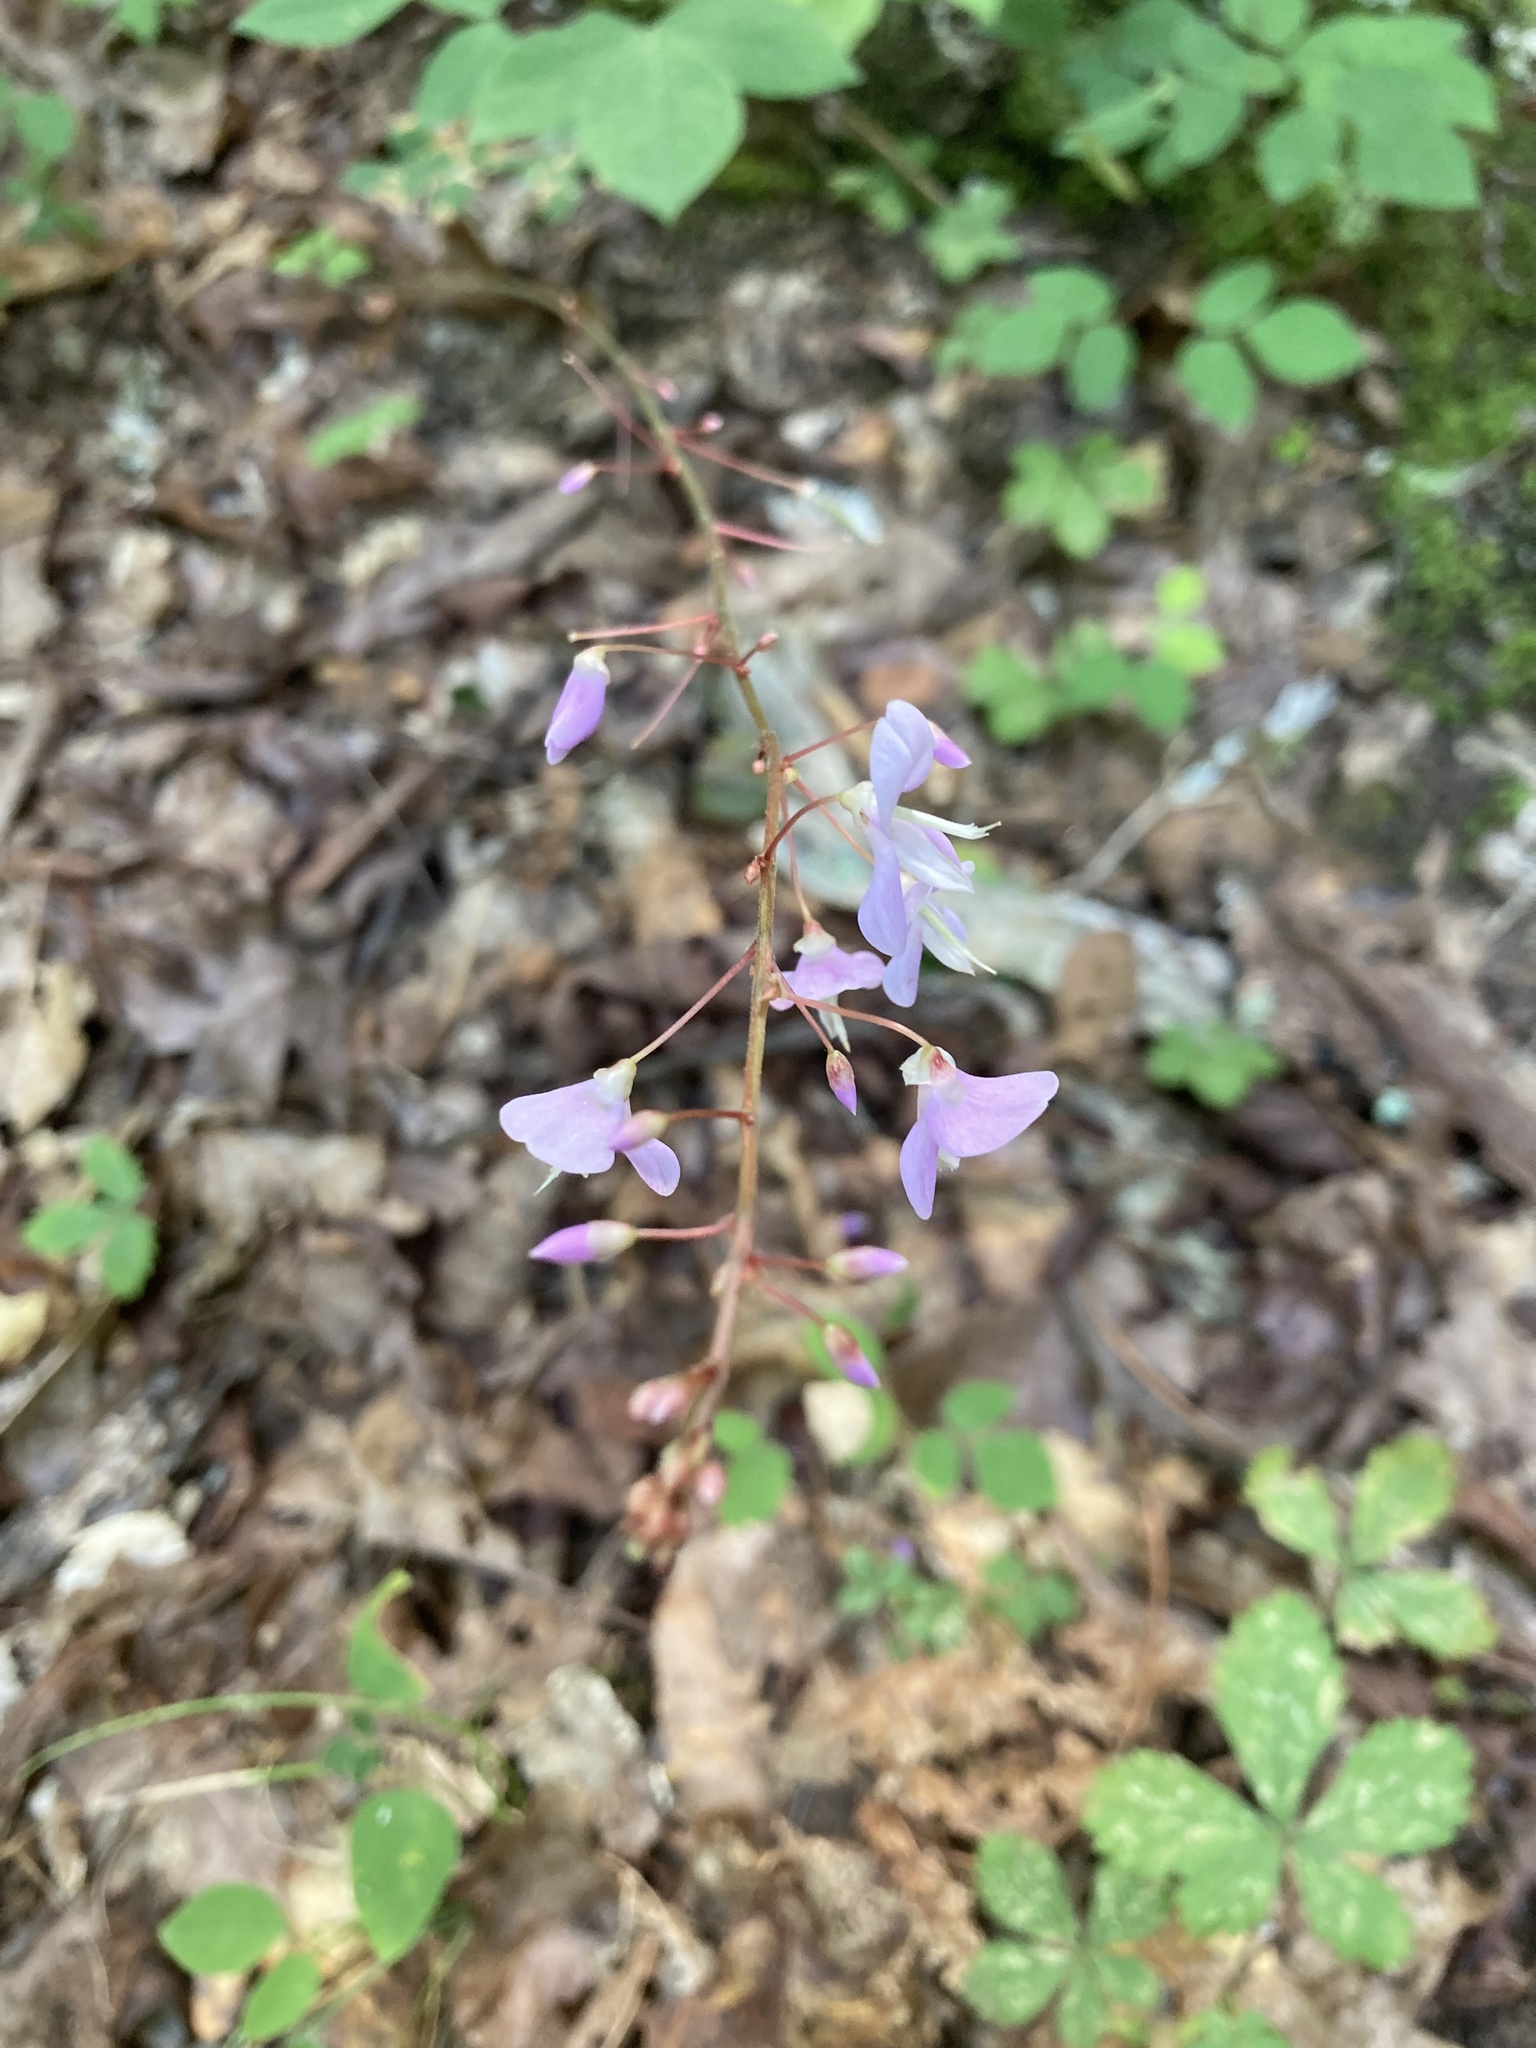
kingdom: Plantae
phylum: Tracheophyta
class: Magnoliopsida
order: Fabales
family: Fabaceae
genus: Hylodesmum
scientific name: Hylodesmum nudiflorum
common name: Bare-stemmed tick-trefoil
